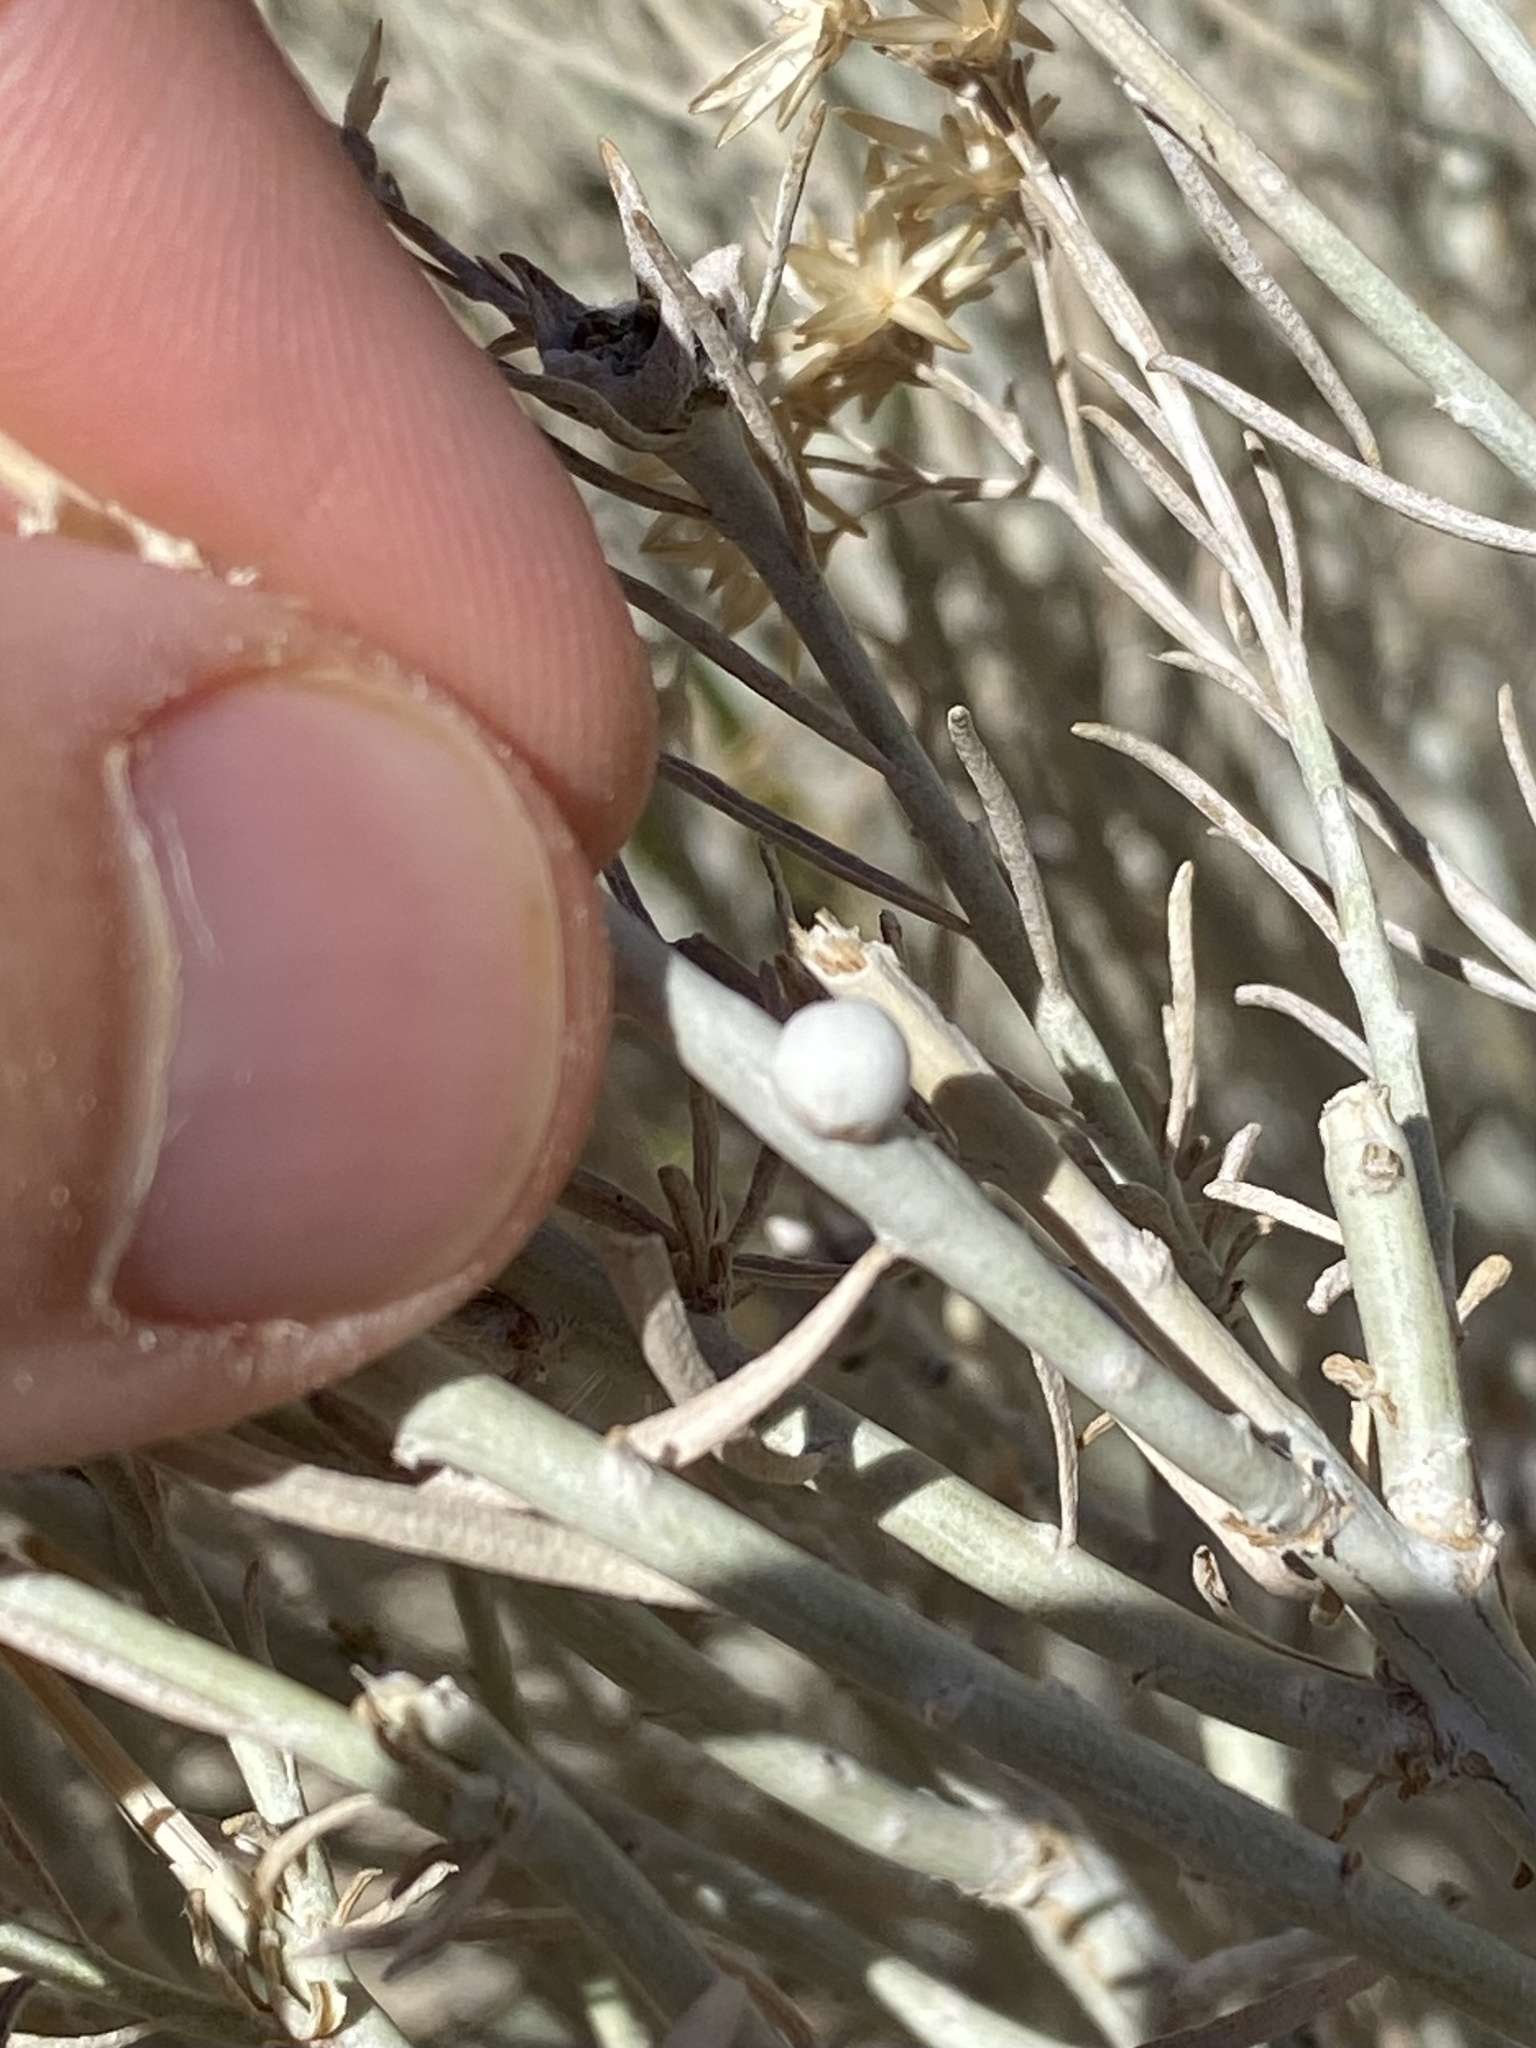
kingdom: Animalia
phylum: Arthropoda
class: Insecta
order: Diptera
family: Tephritidae
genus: Aciurina
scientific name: Aciurina trixa
